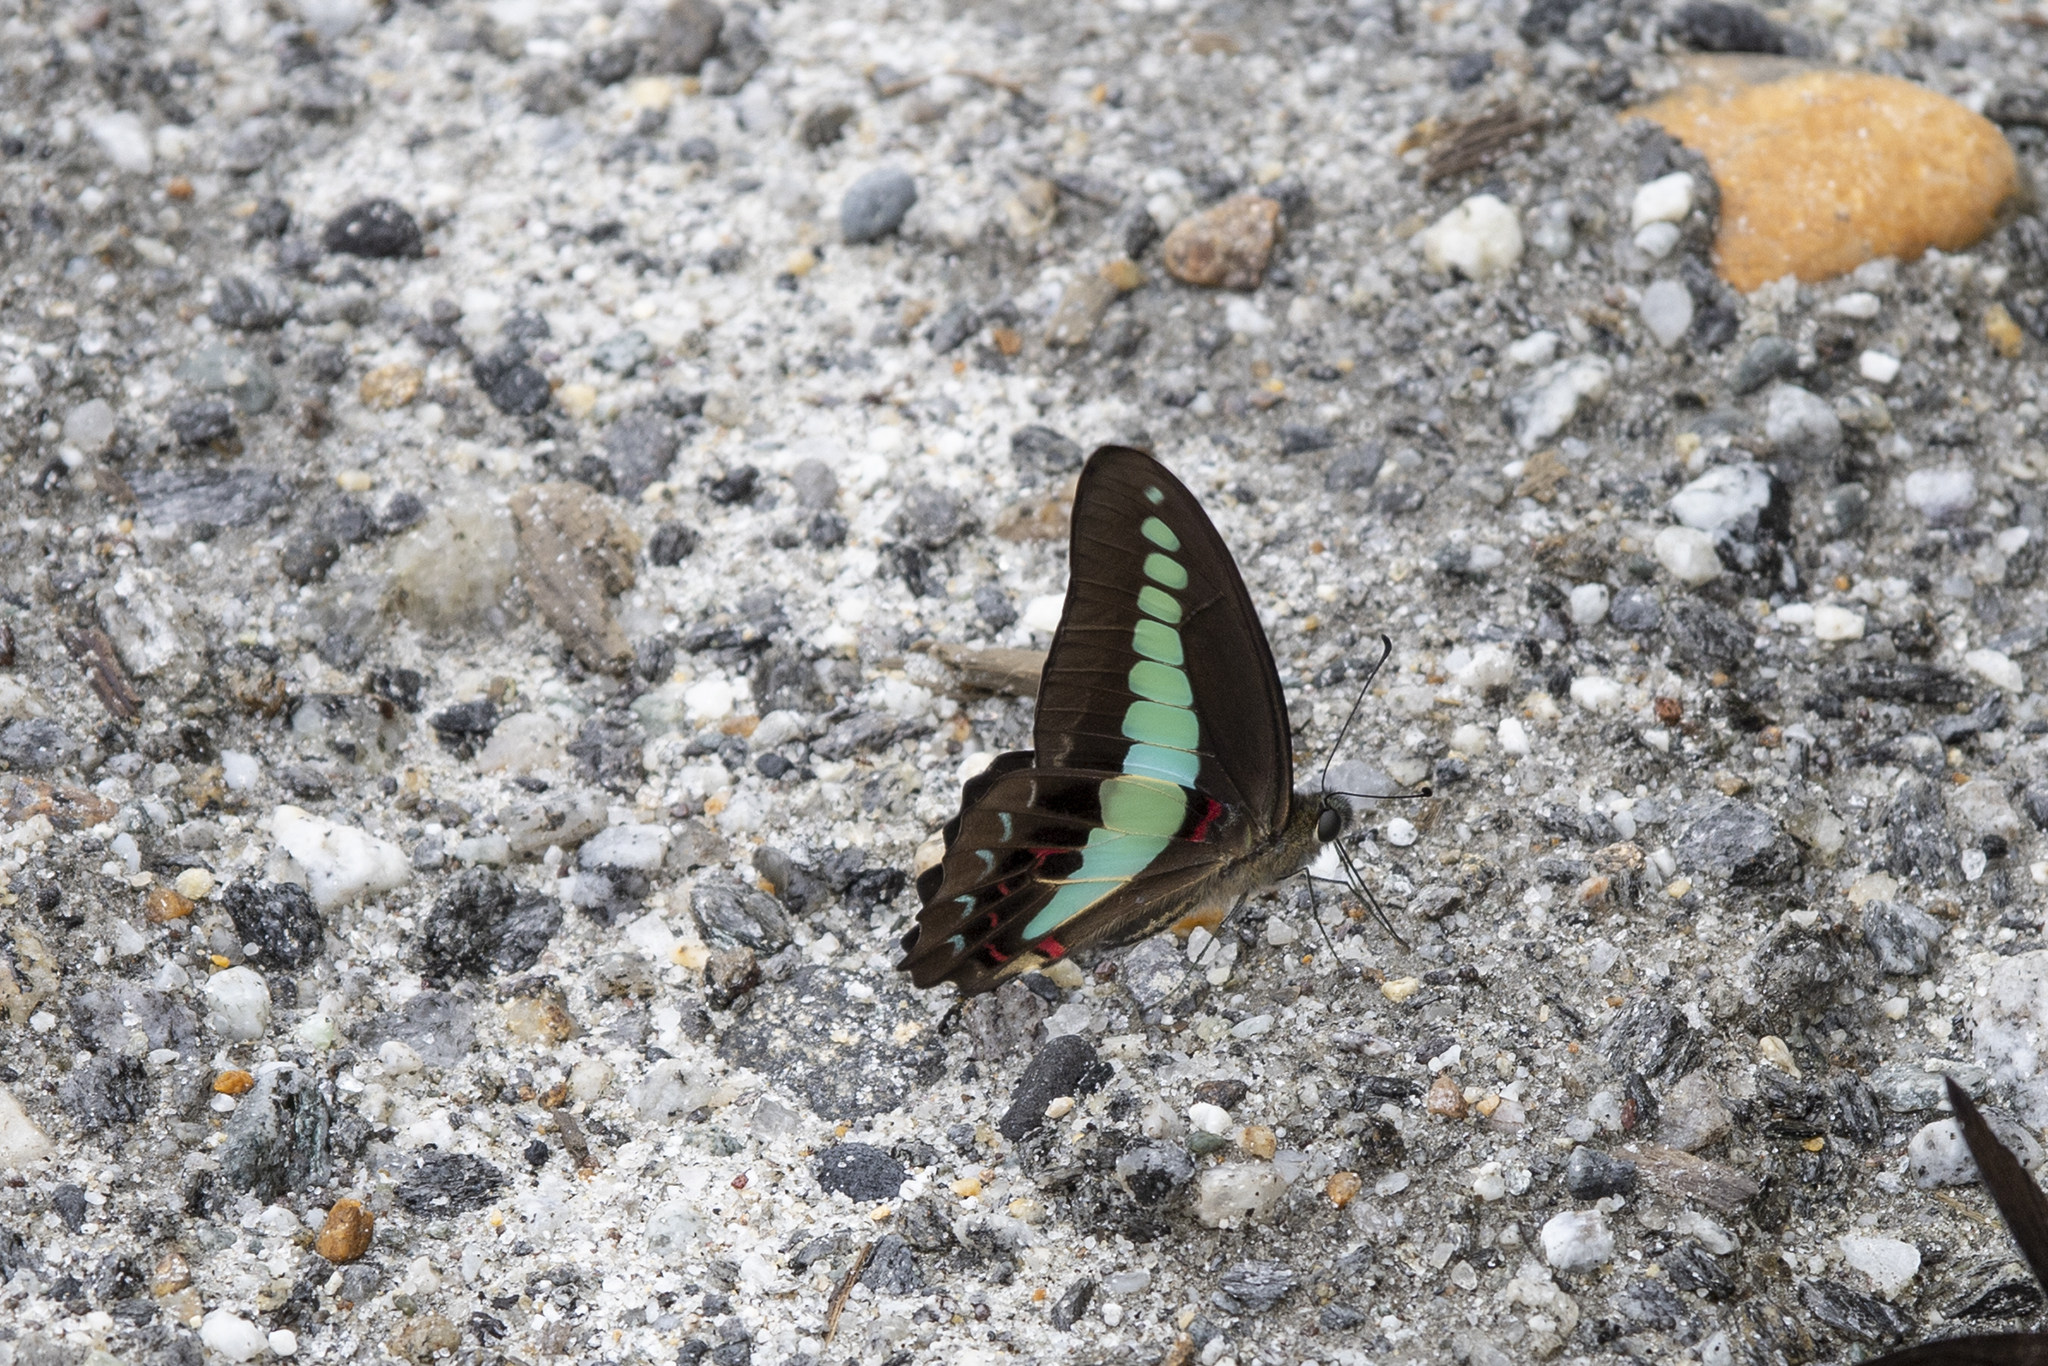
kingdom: Fungi
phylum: Ascomycota
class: Sordariomycetes
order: Microascales
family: Microascaceae
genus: Graphium
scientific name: Graphium sarpedon
